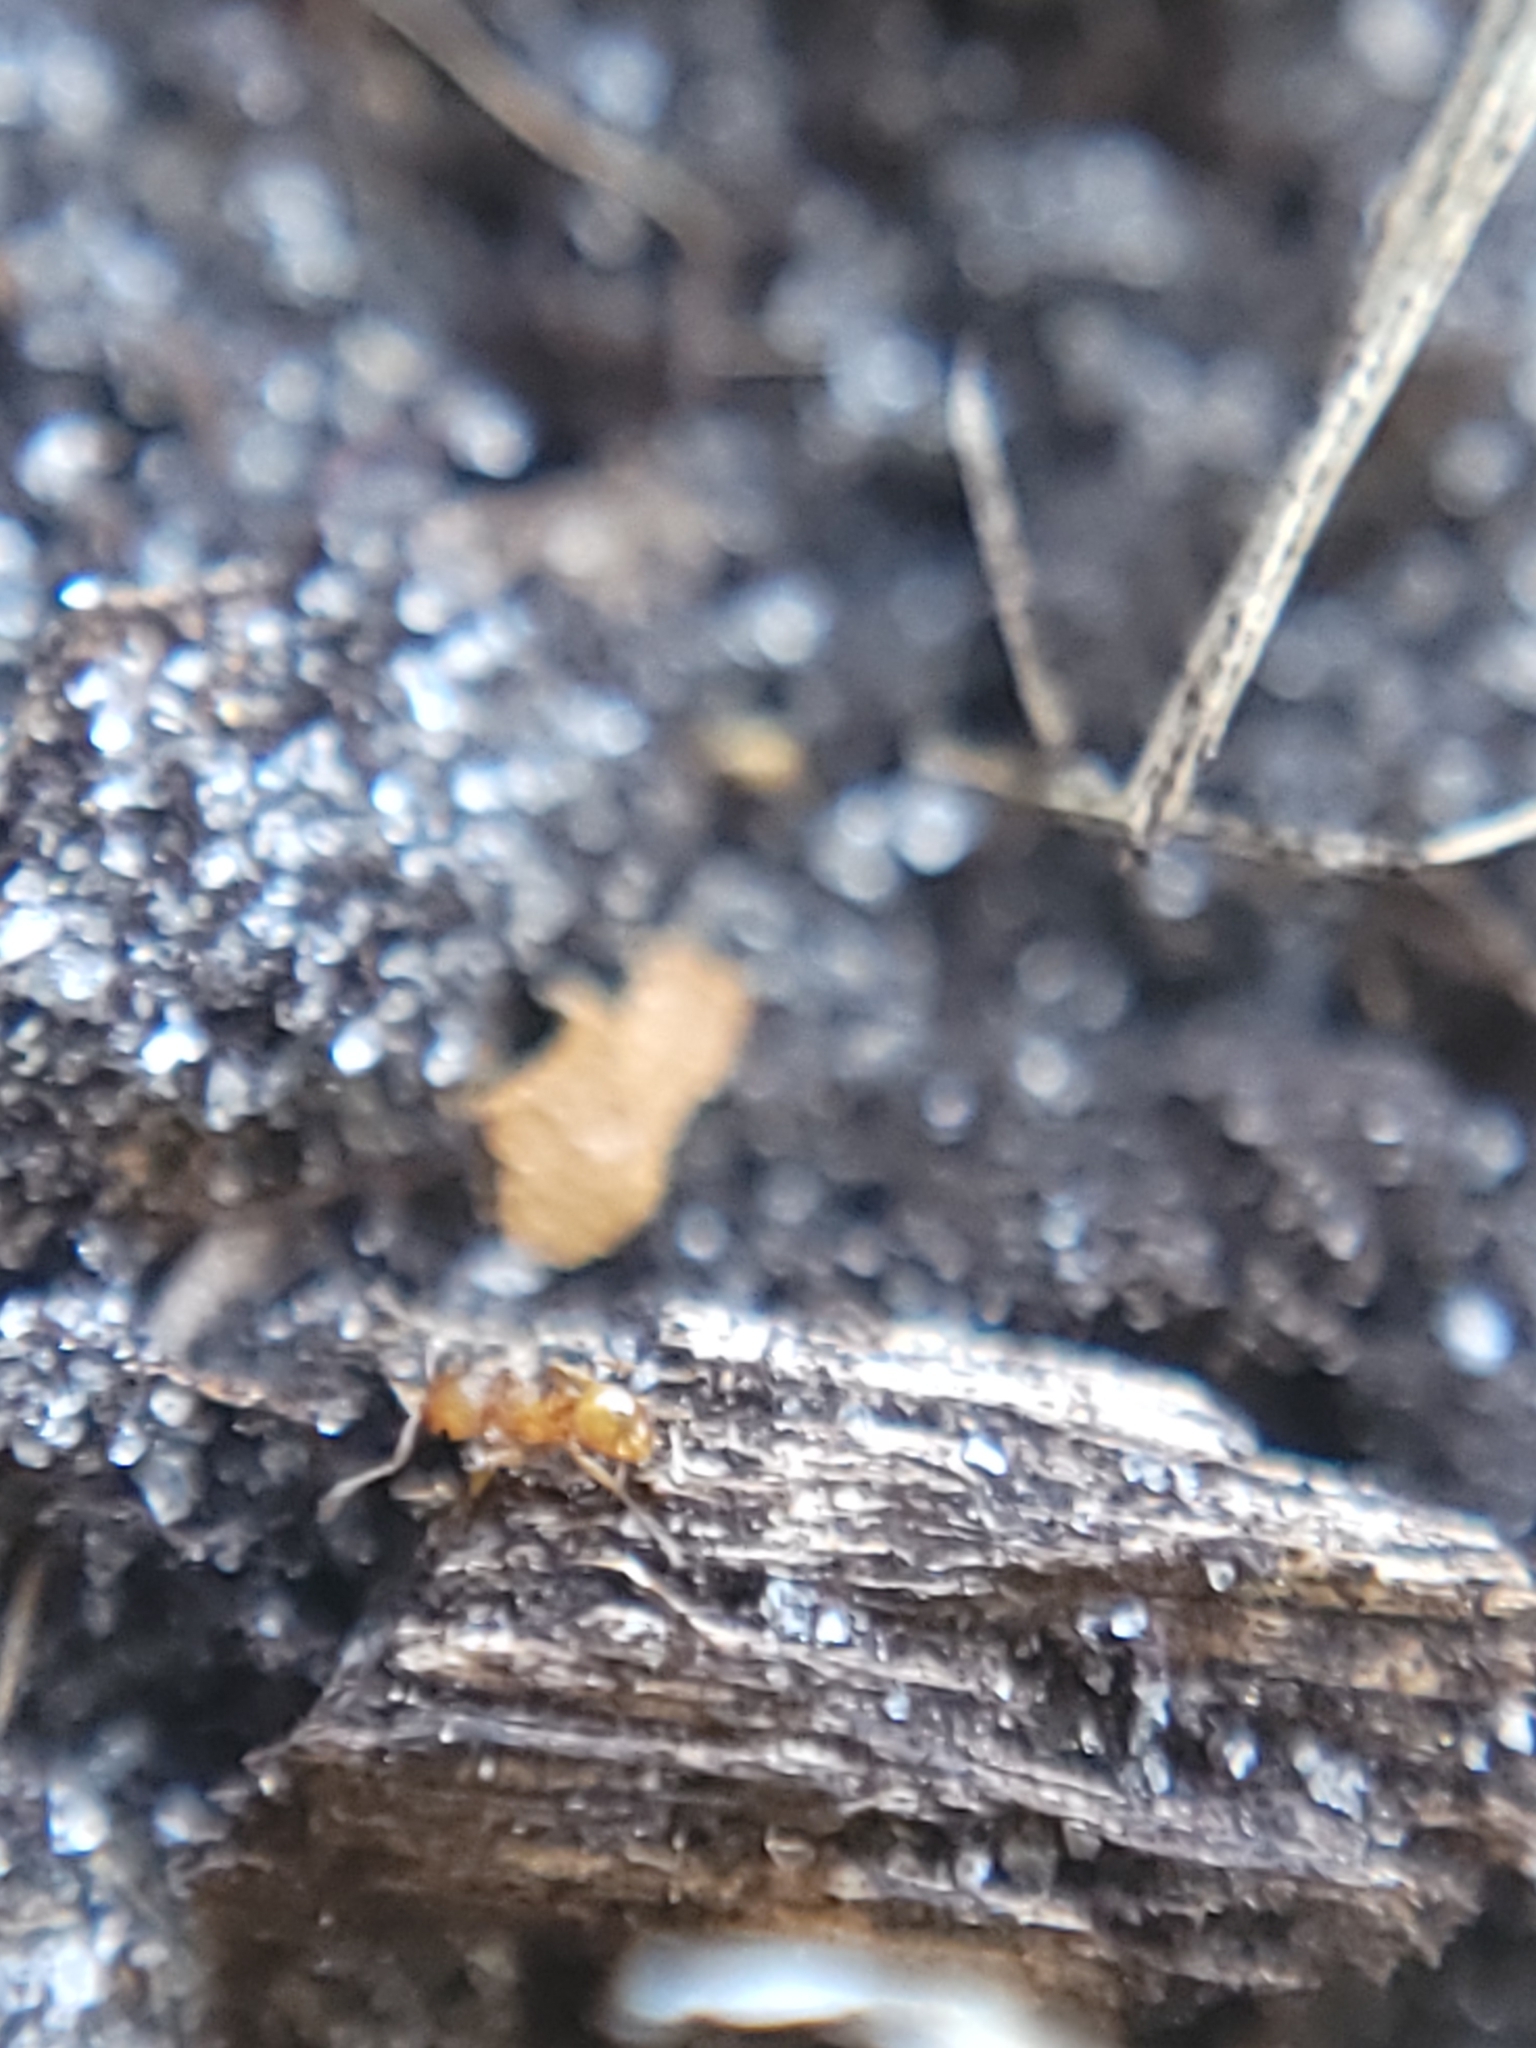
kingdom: Animalia
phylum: Arthropoda
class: Insecta
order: Hymenoptera
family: Formicidae
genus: Wasmannia
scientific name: Wasmannia auropunctata
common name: Little fire ant
